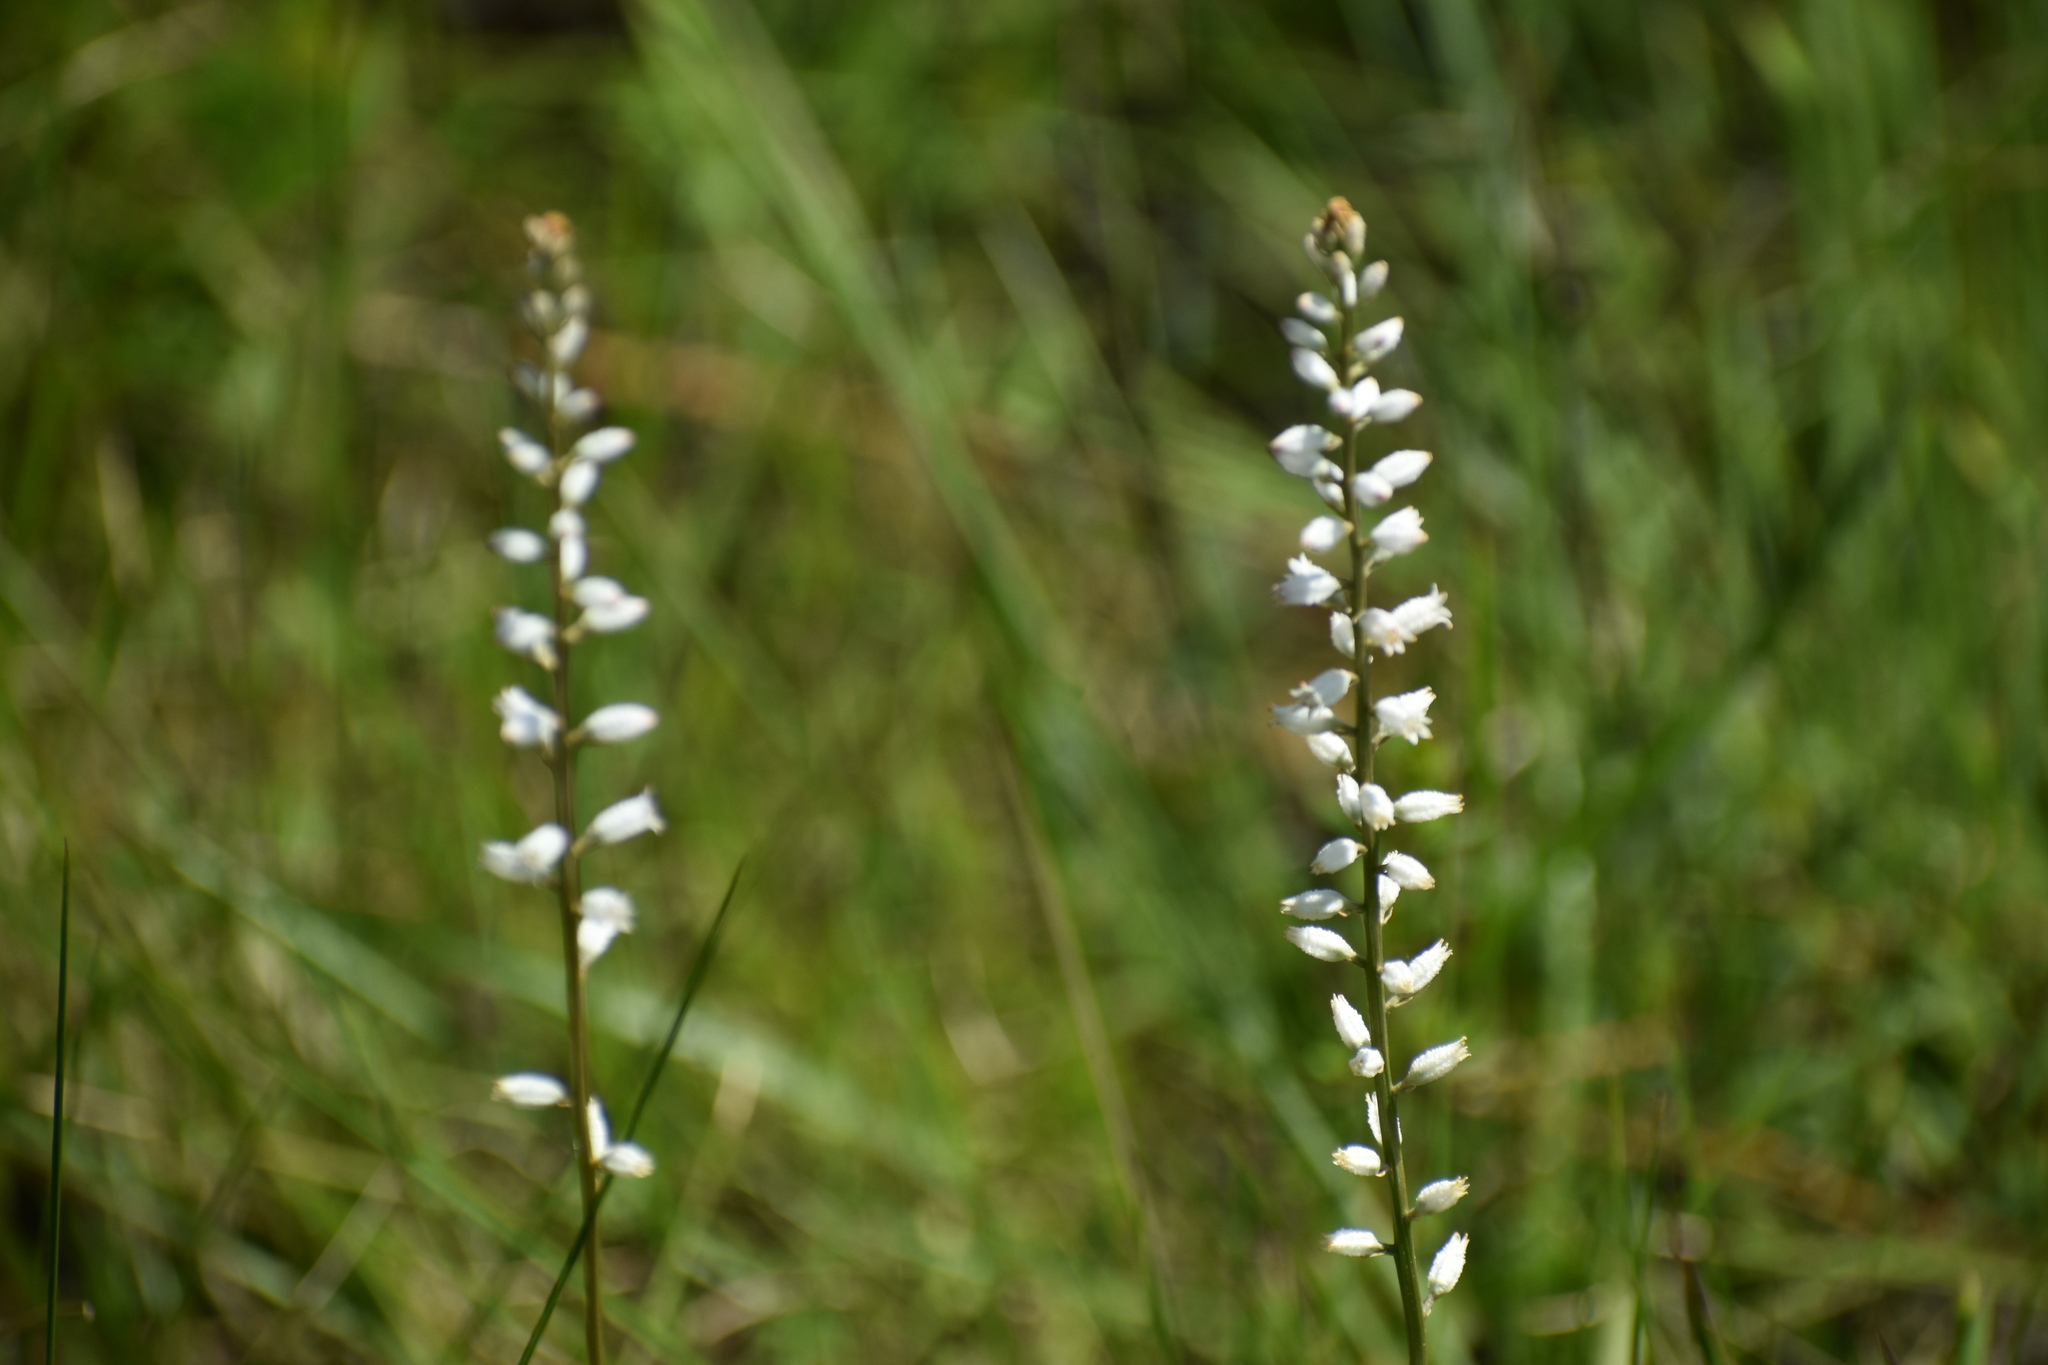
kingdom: Plantae
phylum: Tracheophyta
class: Liliopsida
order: Dioscoreales
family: Nartheciaceae
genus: Aletris
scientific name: Aletris farinosa
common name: Colicroot
